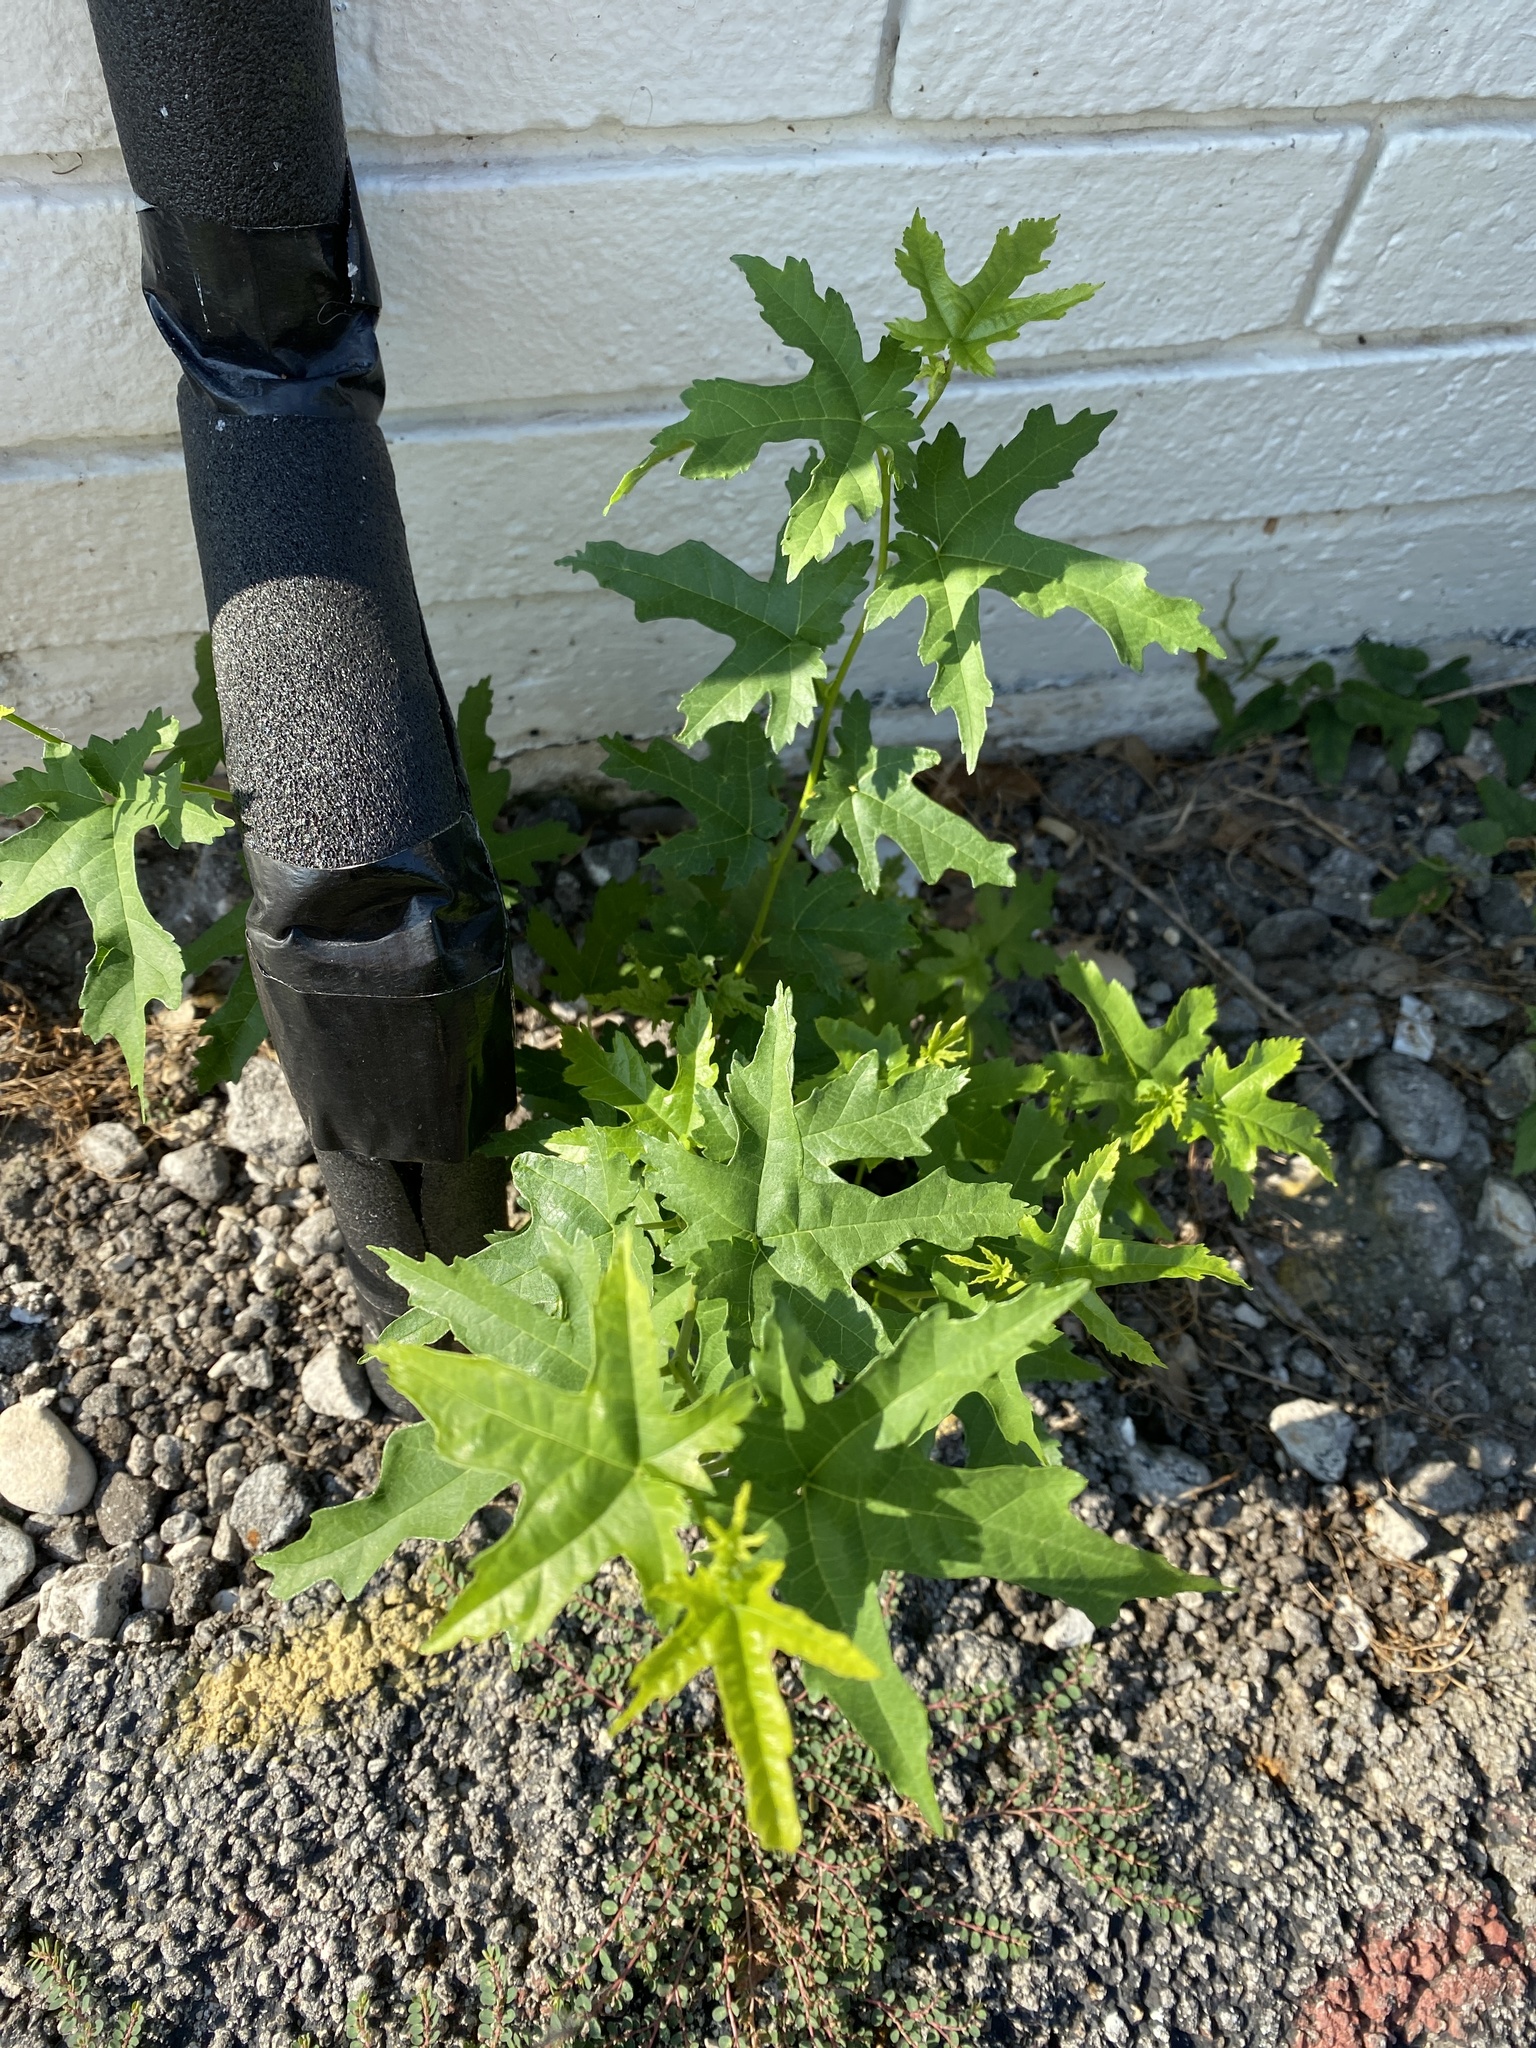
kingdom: Plantae
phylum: Tracheophyta
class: Magnoliopsida
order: Rosales
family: Moraceae
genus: Morus
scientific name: Morus alba
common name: White mulberry
